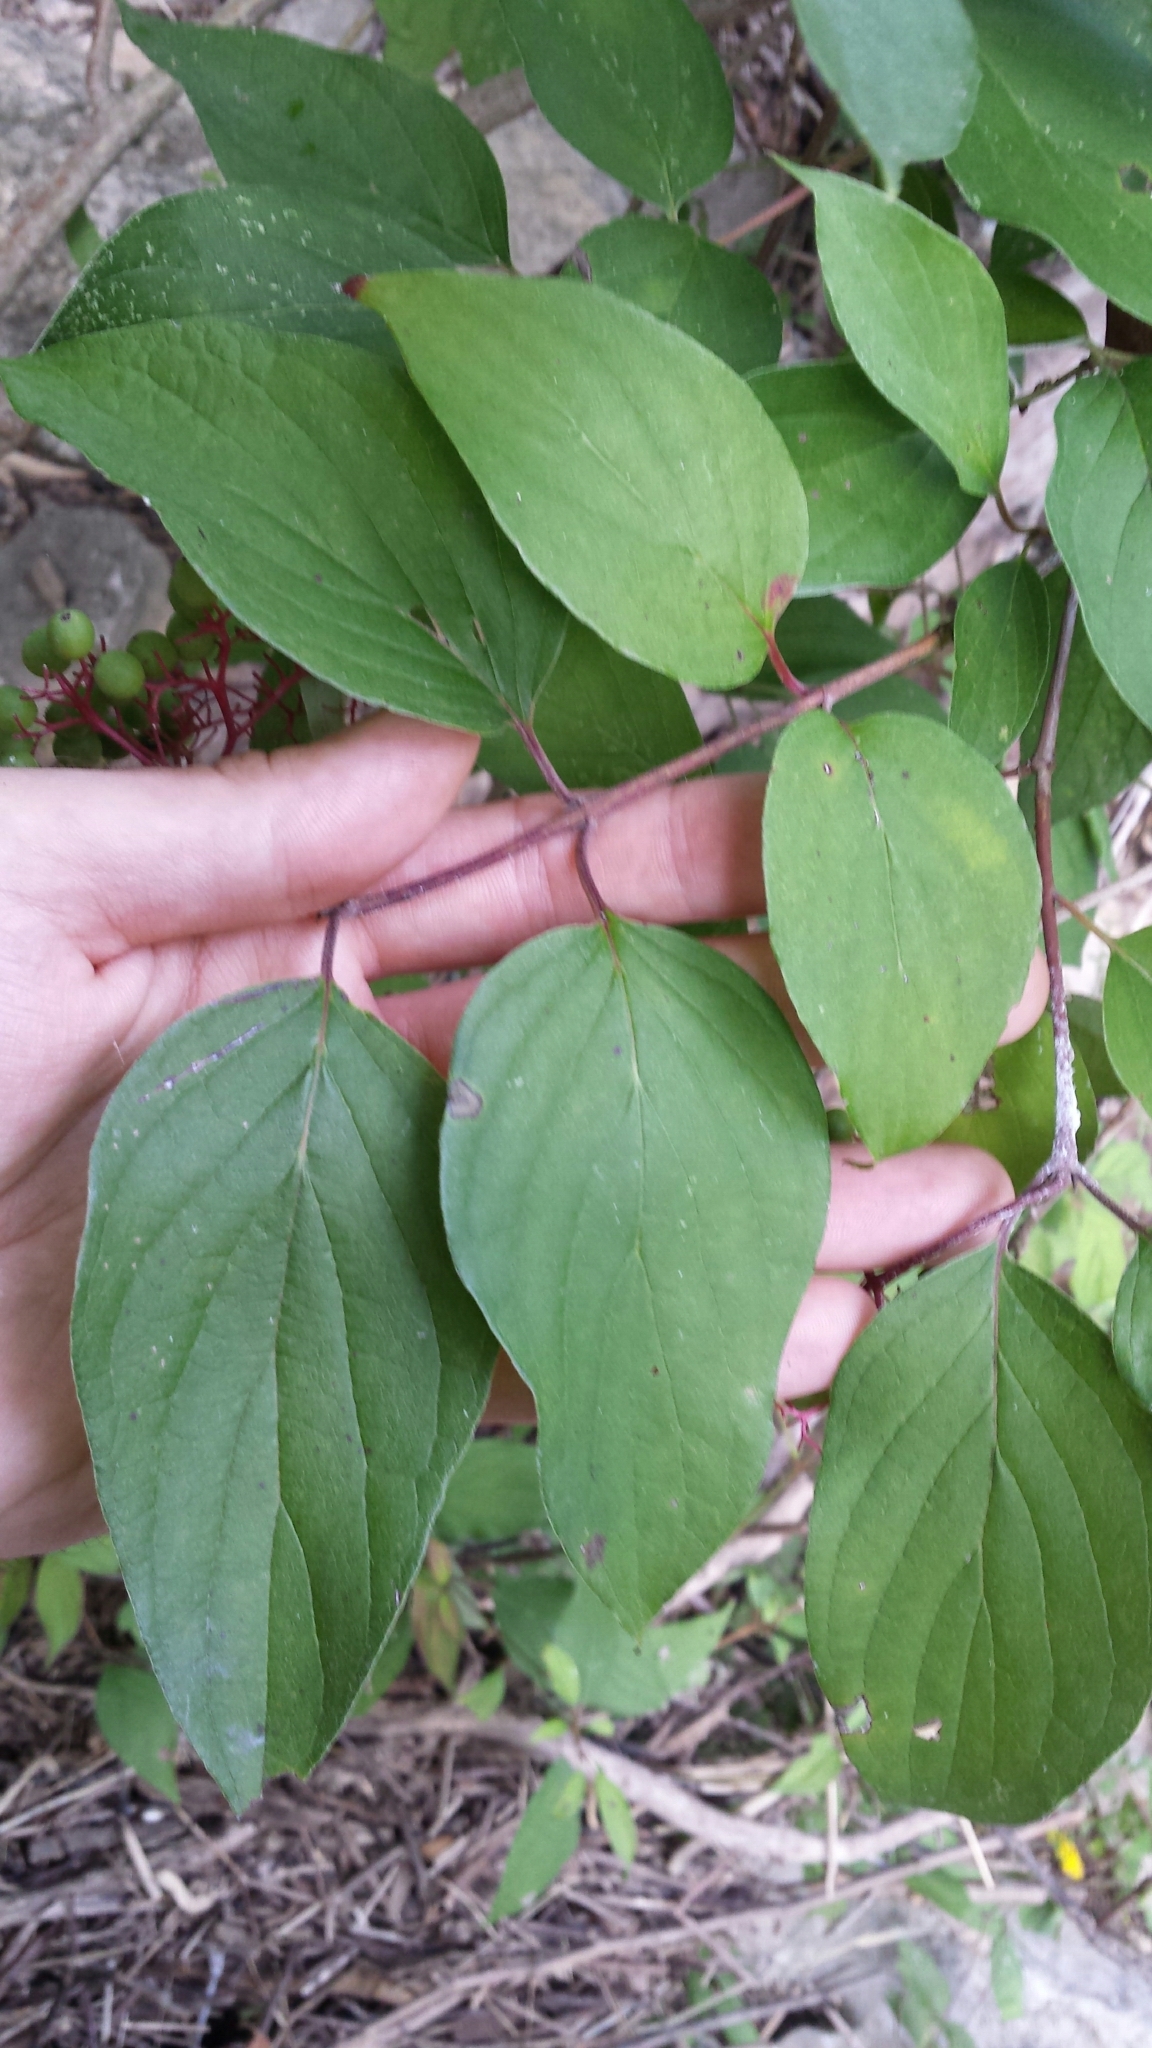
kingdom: Plantae
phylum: Tracheophyta
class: Magnoliopsida
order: Cornales
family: Cornaceae
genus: Cornus
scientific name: Cornus drummondii
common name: Rough-leaf dogwood
